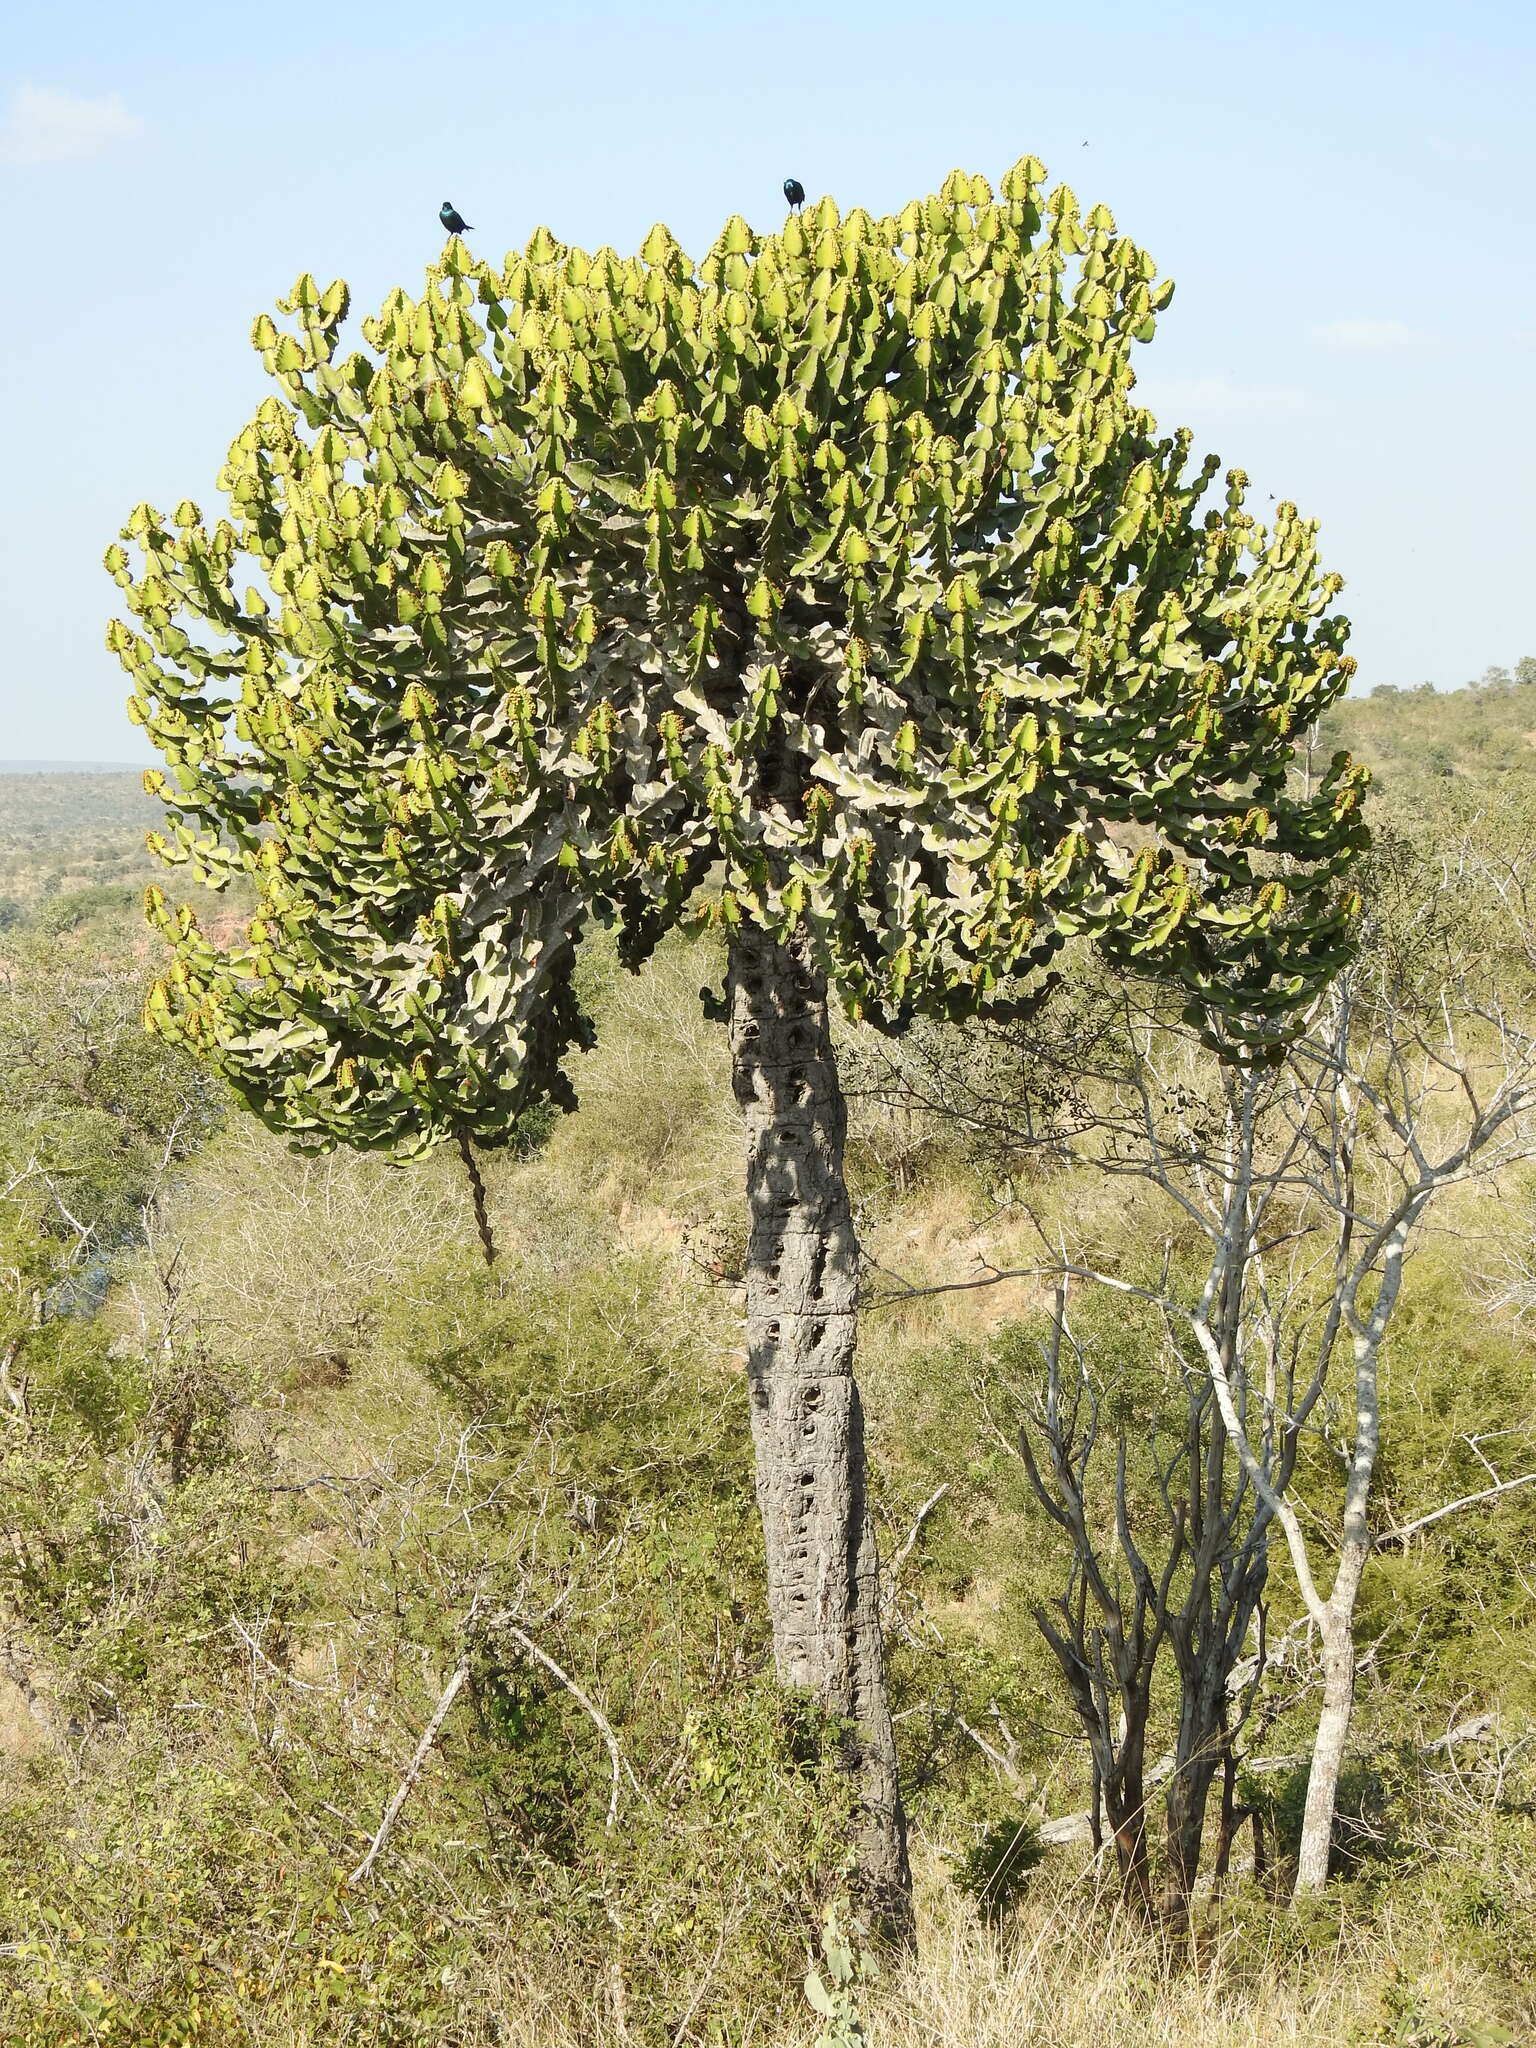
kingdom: Plantae
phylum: Tracheophyta
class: Magnoliopsida
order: Malpighiales
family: Euphorbiaceae
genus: Euphorbia
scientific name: Euphorbia cooperi
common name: Candelabra tree
